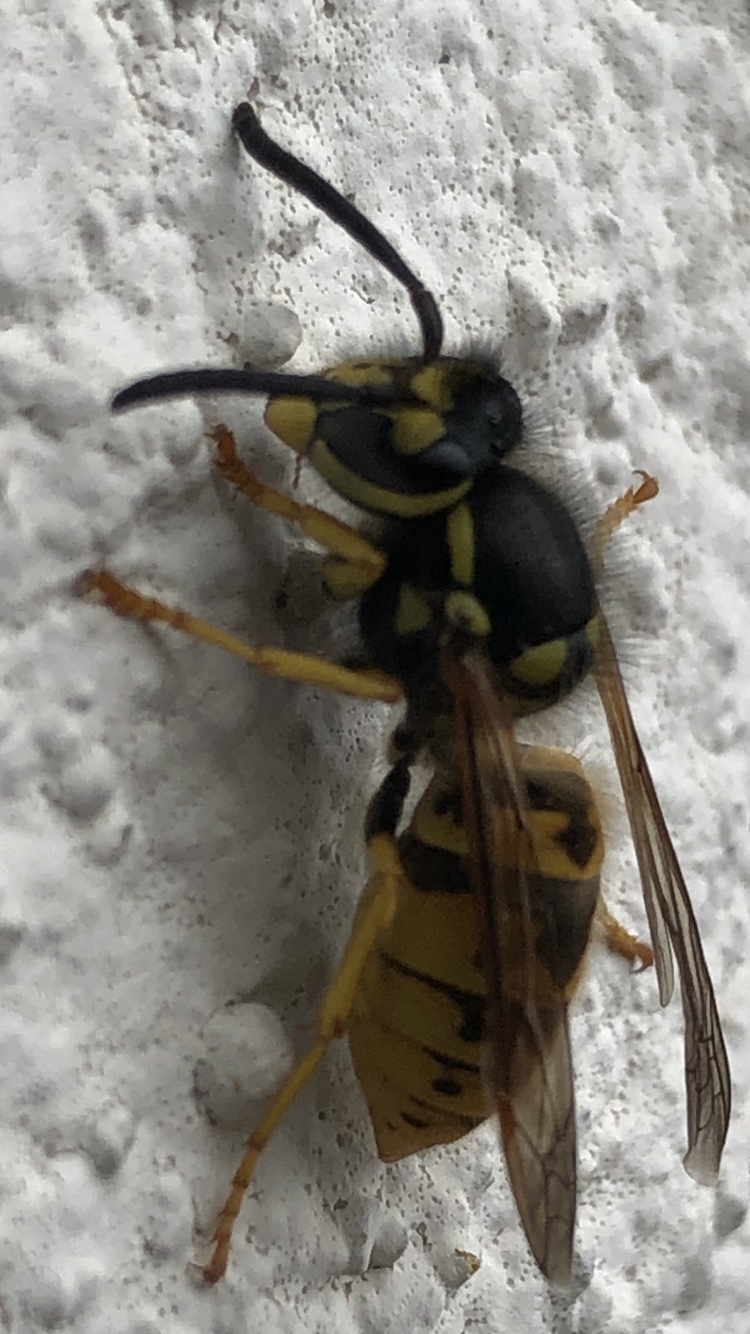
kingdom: Animalia
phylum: Arthropoda
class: Insecta
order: Hymenoptera
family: Vespidae
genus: Vespula
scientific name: Vespula germanica
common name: German wasp
